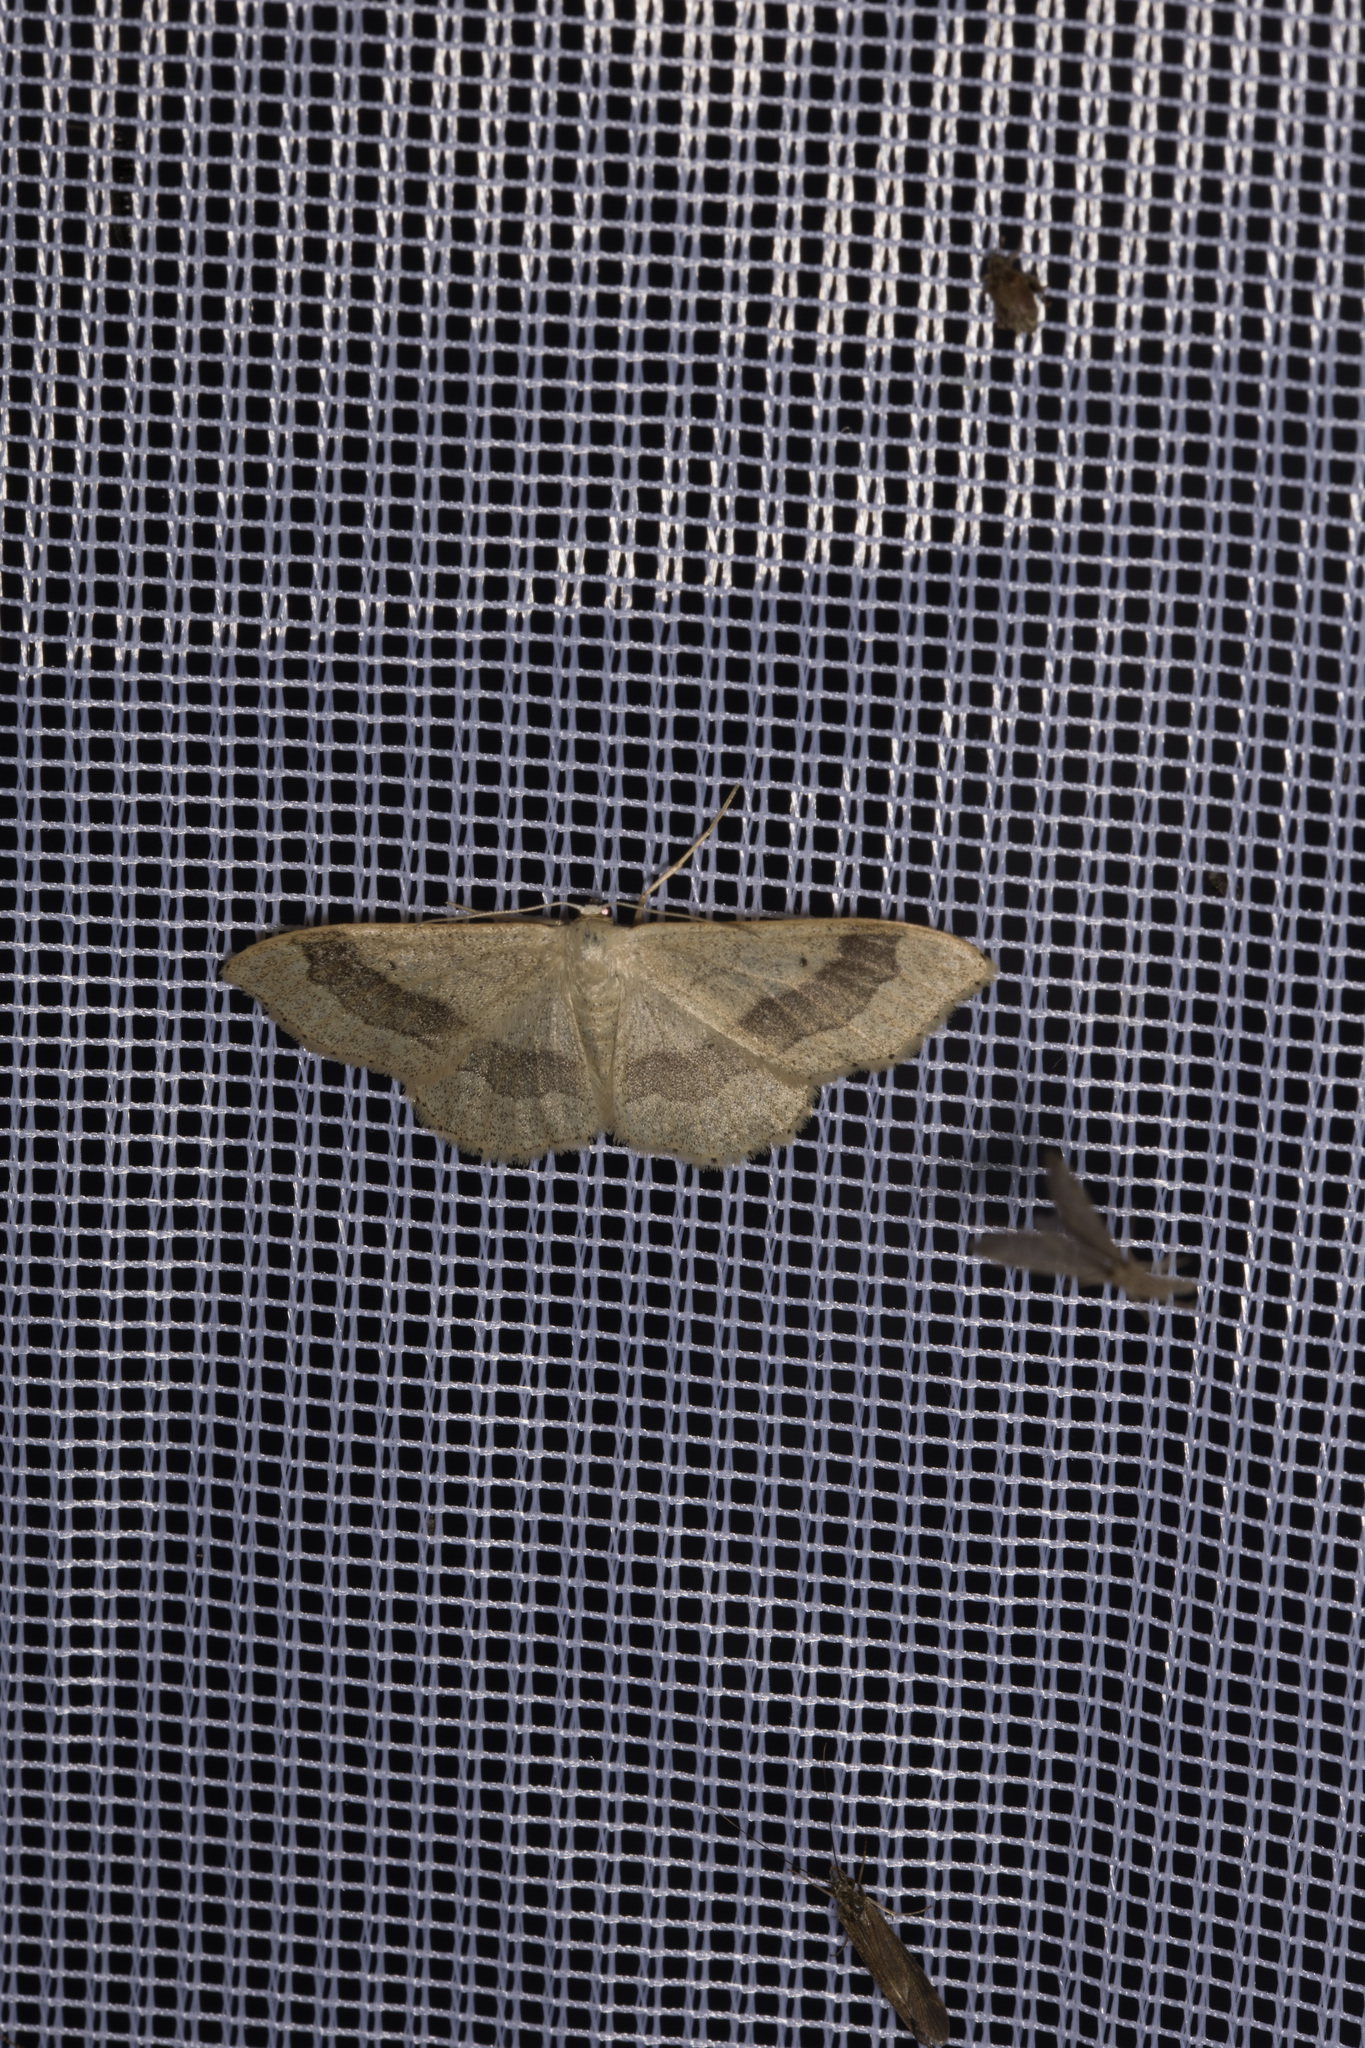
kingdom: Animalia
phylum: Arthropoda
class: Insecta
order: Lepidoptera
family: Geometridae
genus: Idaea
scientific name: Idaea aversata
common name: Riband wave
